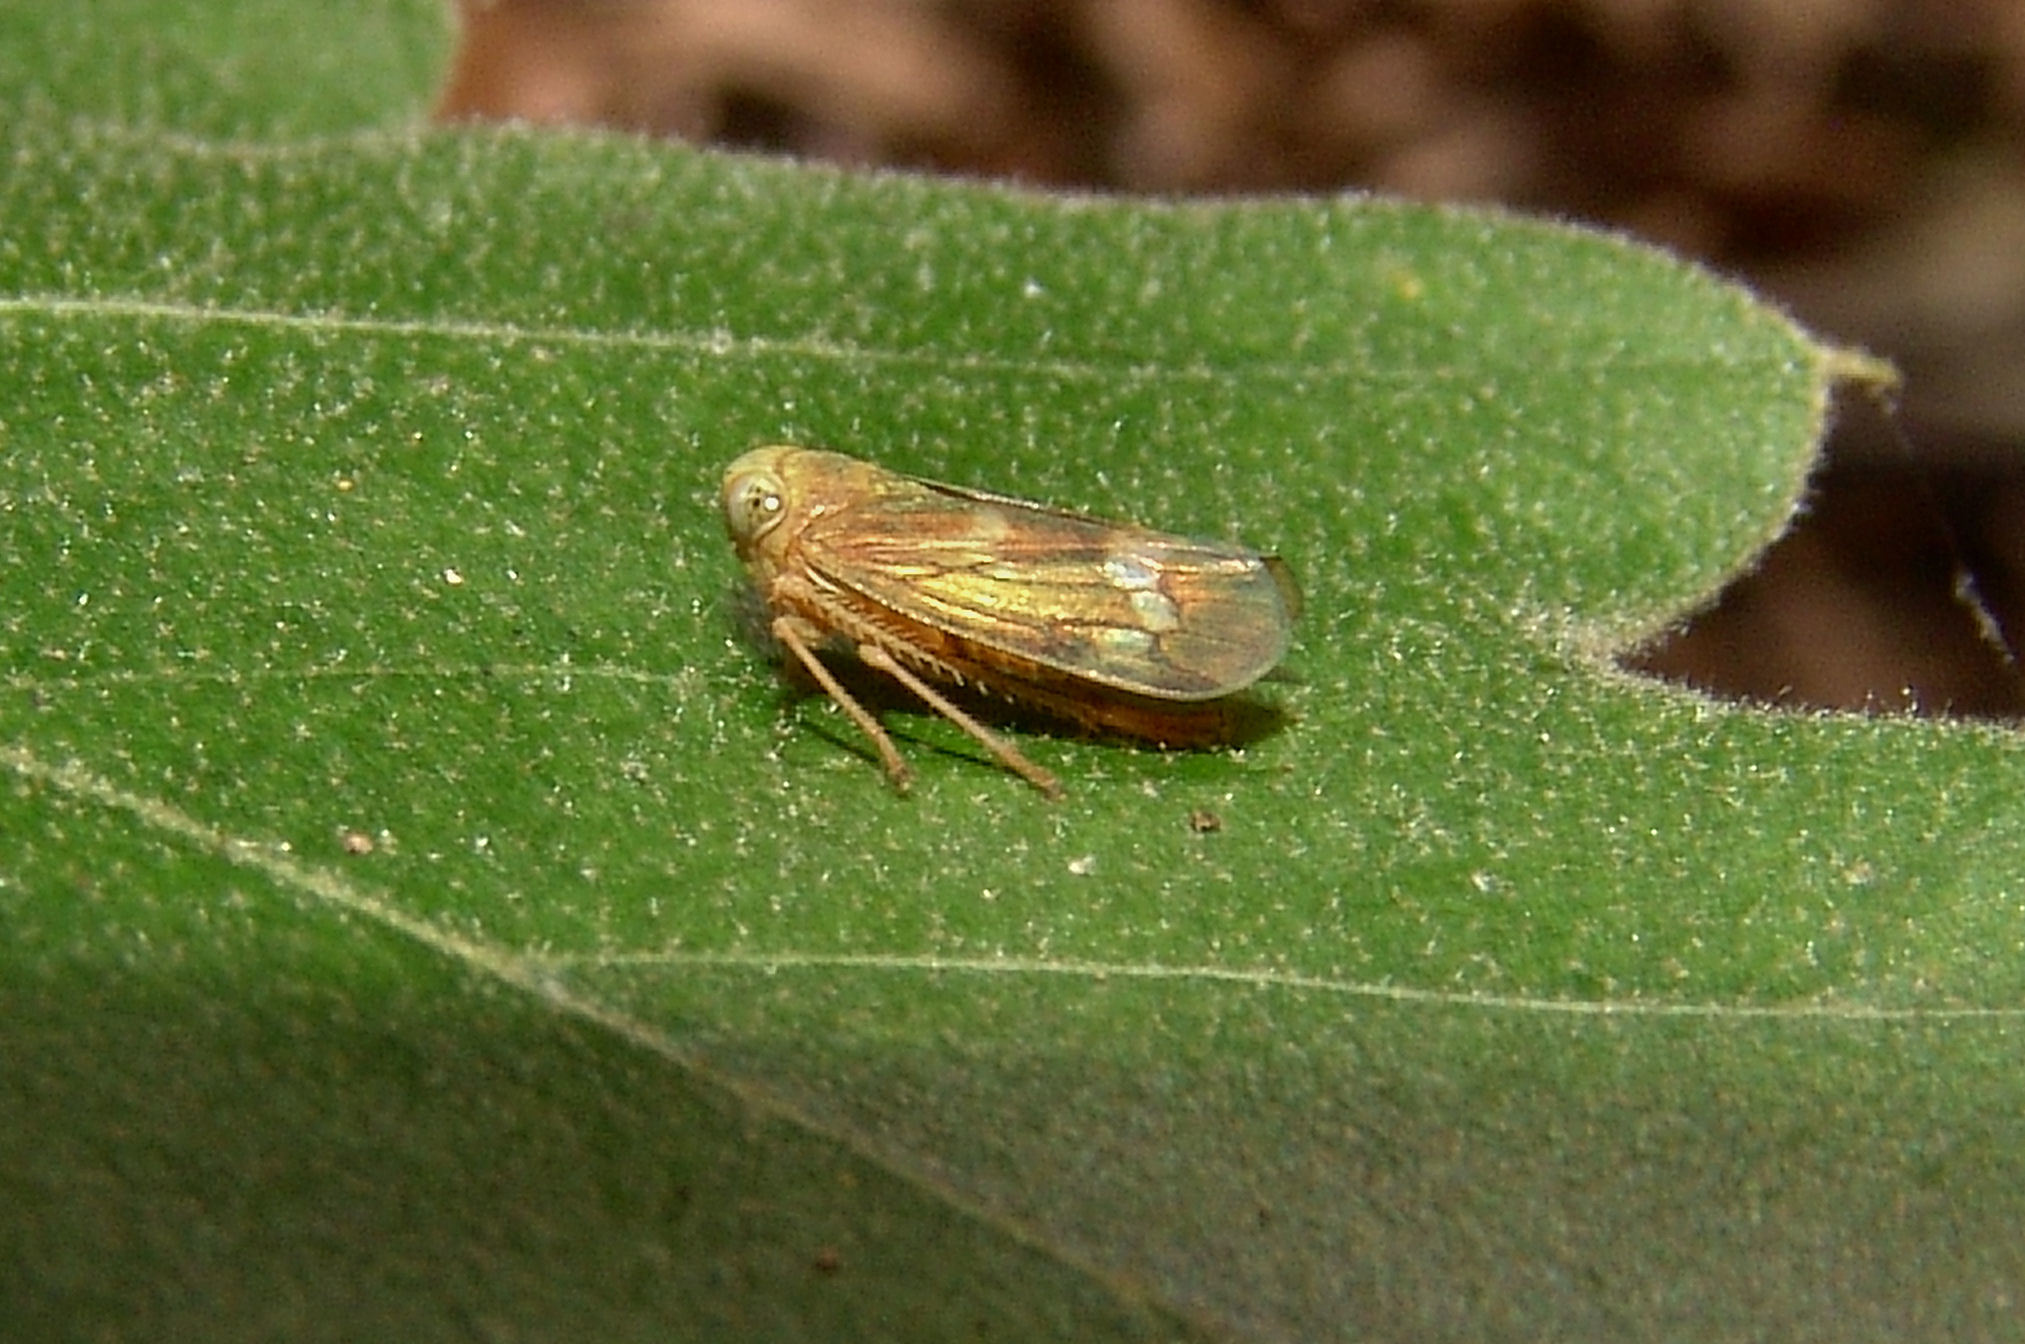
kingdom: Animalia
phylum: Arthropoda
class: Insecta
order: Hemiptera
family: Cicadellidae
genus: Jikradia
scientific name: Jikradia olitoria
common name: Coppery leafhopper
